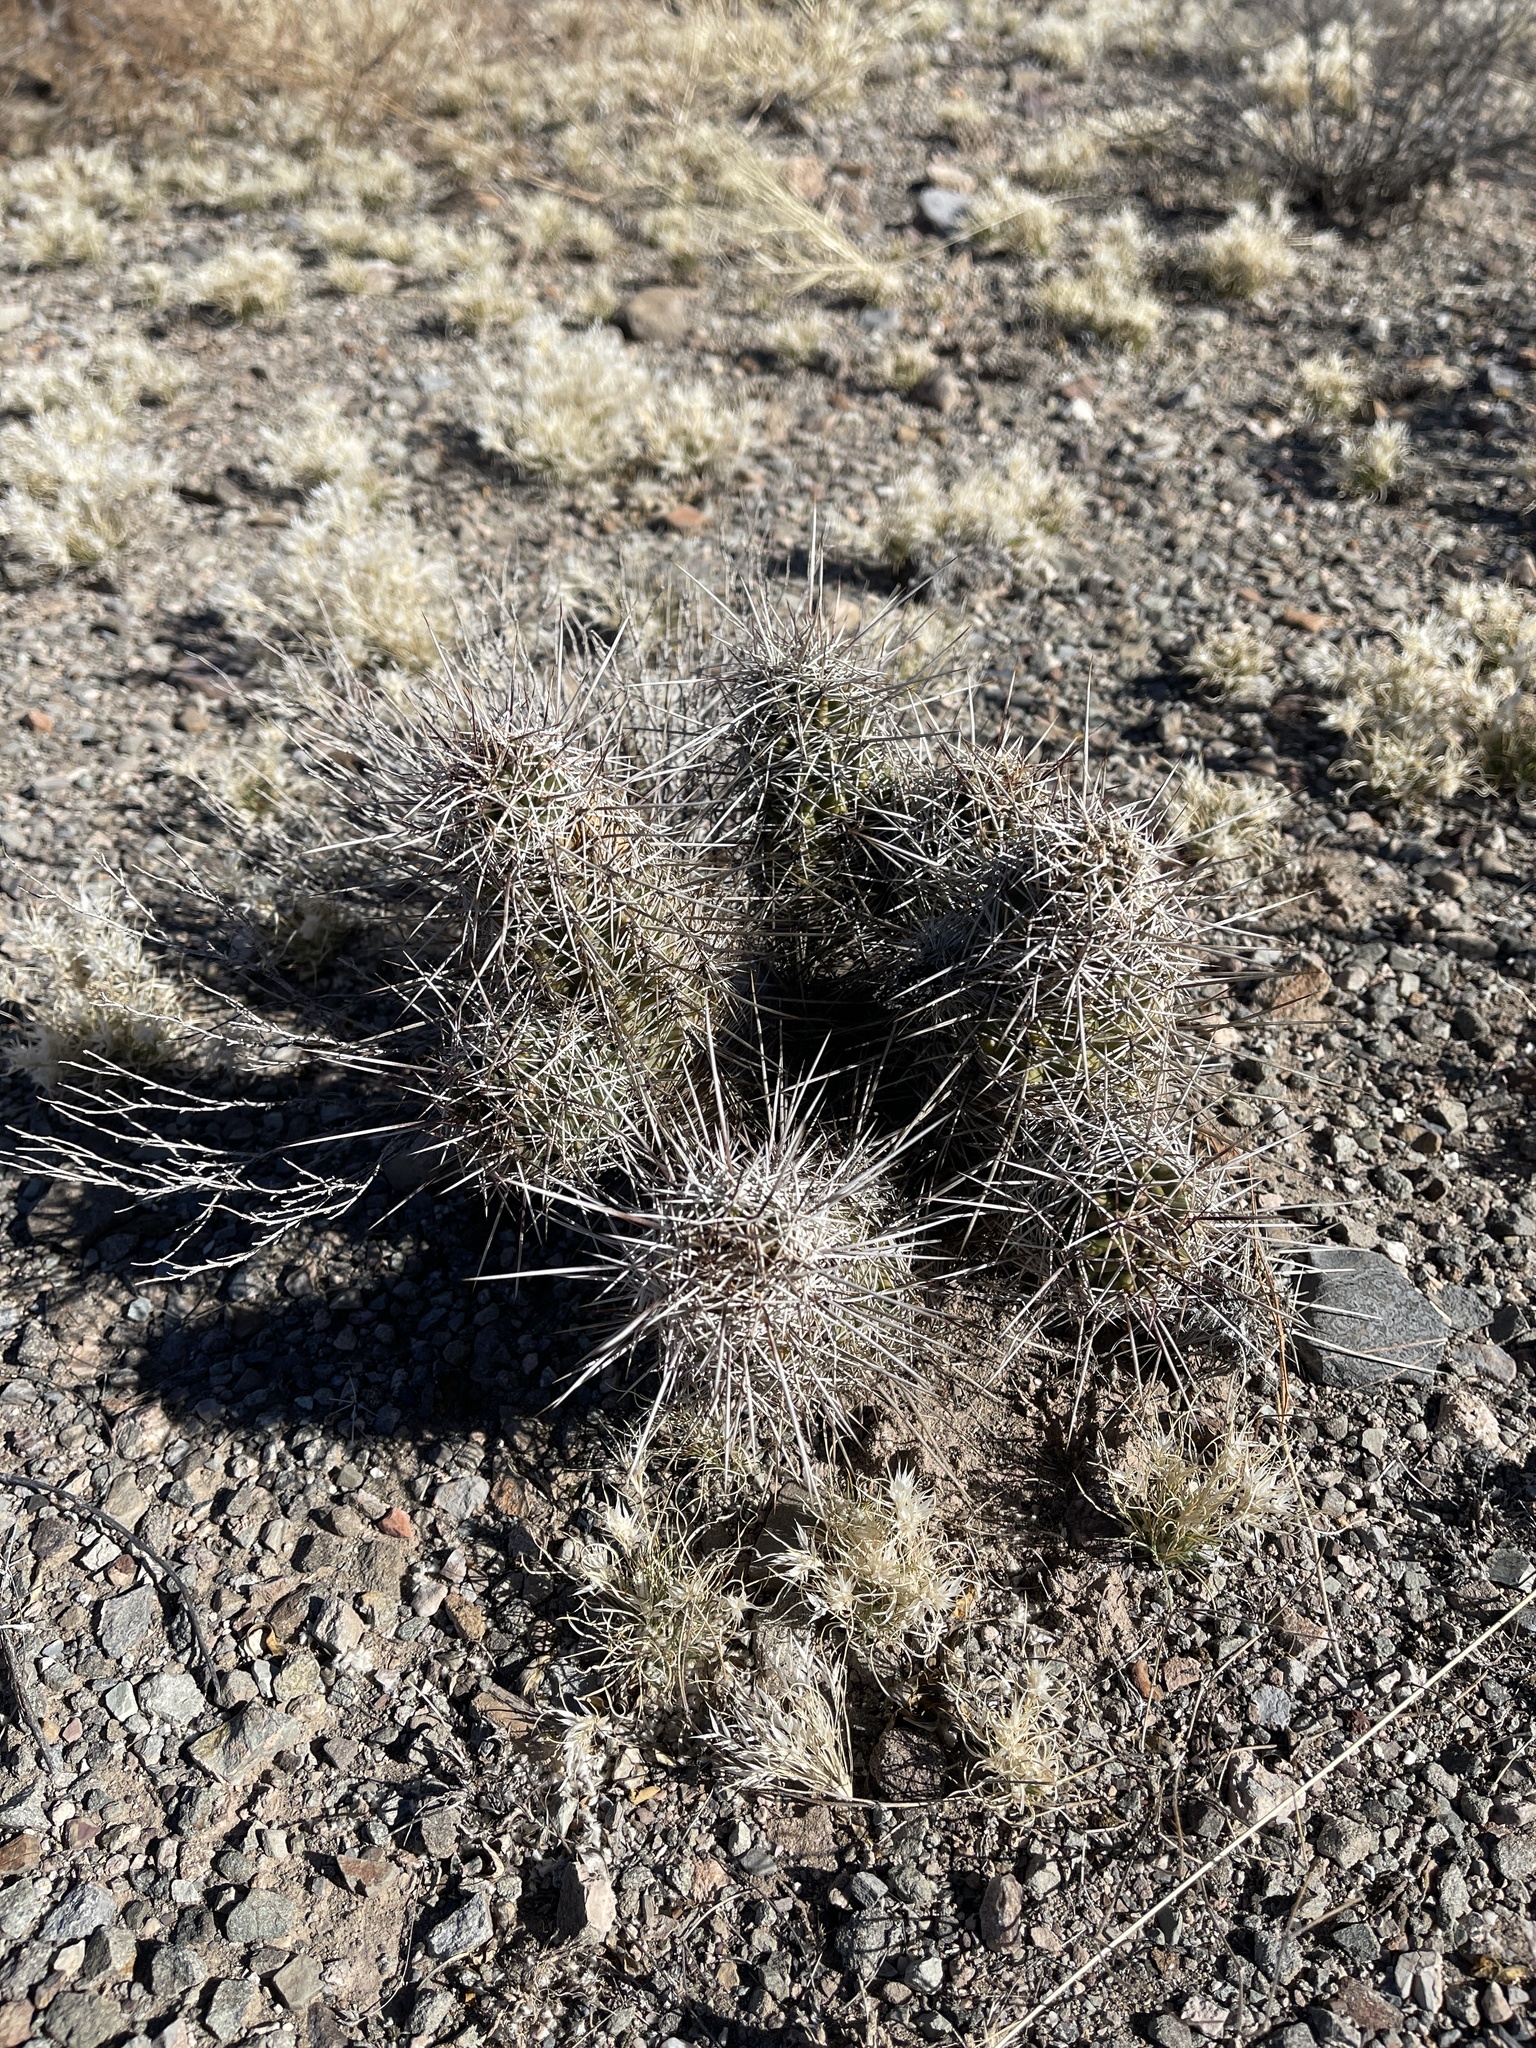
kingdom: Plantae
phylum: Tracheophyta
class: Magnoliopsida
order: Caryophyllales
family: Cactaceae
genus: Echinocereus
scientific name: Echinocereus fasciculatus
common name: Bundle hedgehog
